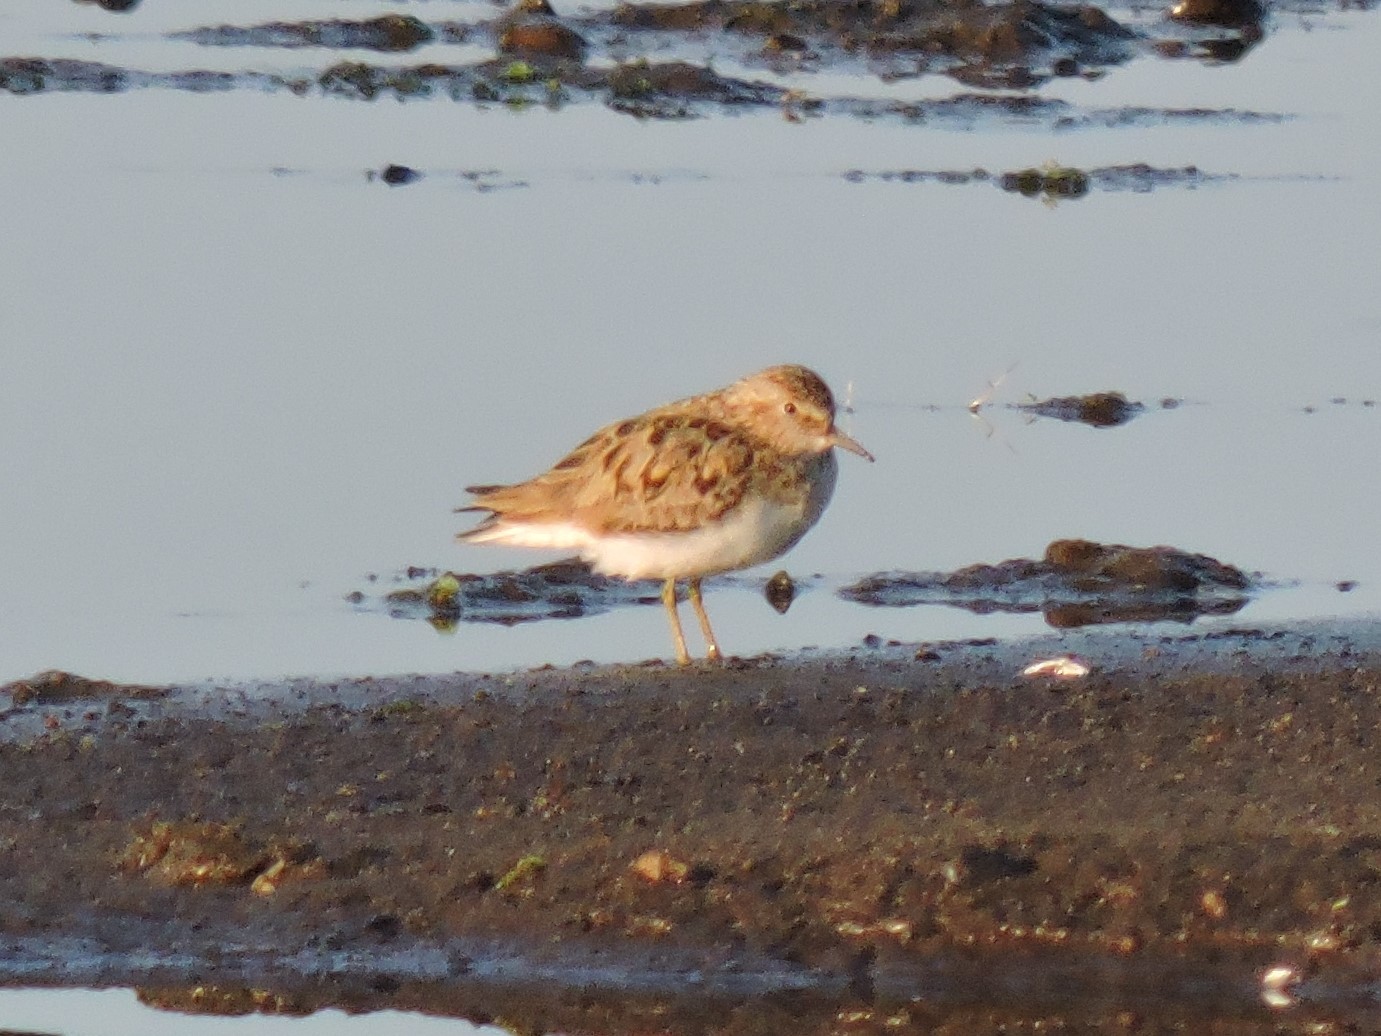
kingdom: Animalia
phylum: Chordata
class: Aves
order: Charadriiformes
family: Scolopacidae
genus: Calidris
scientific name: Calidris temminckii
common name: Temminck's stint
